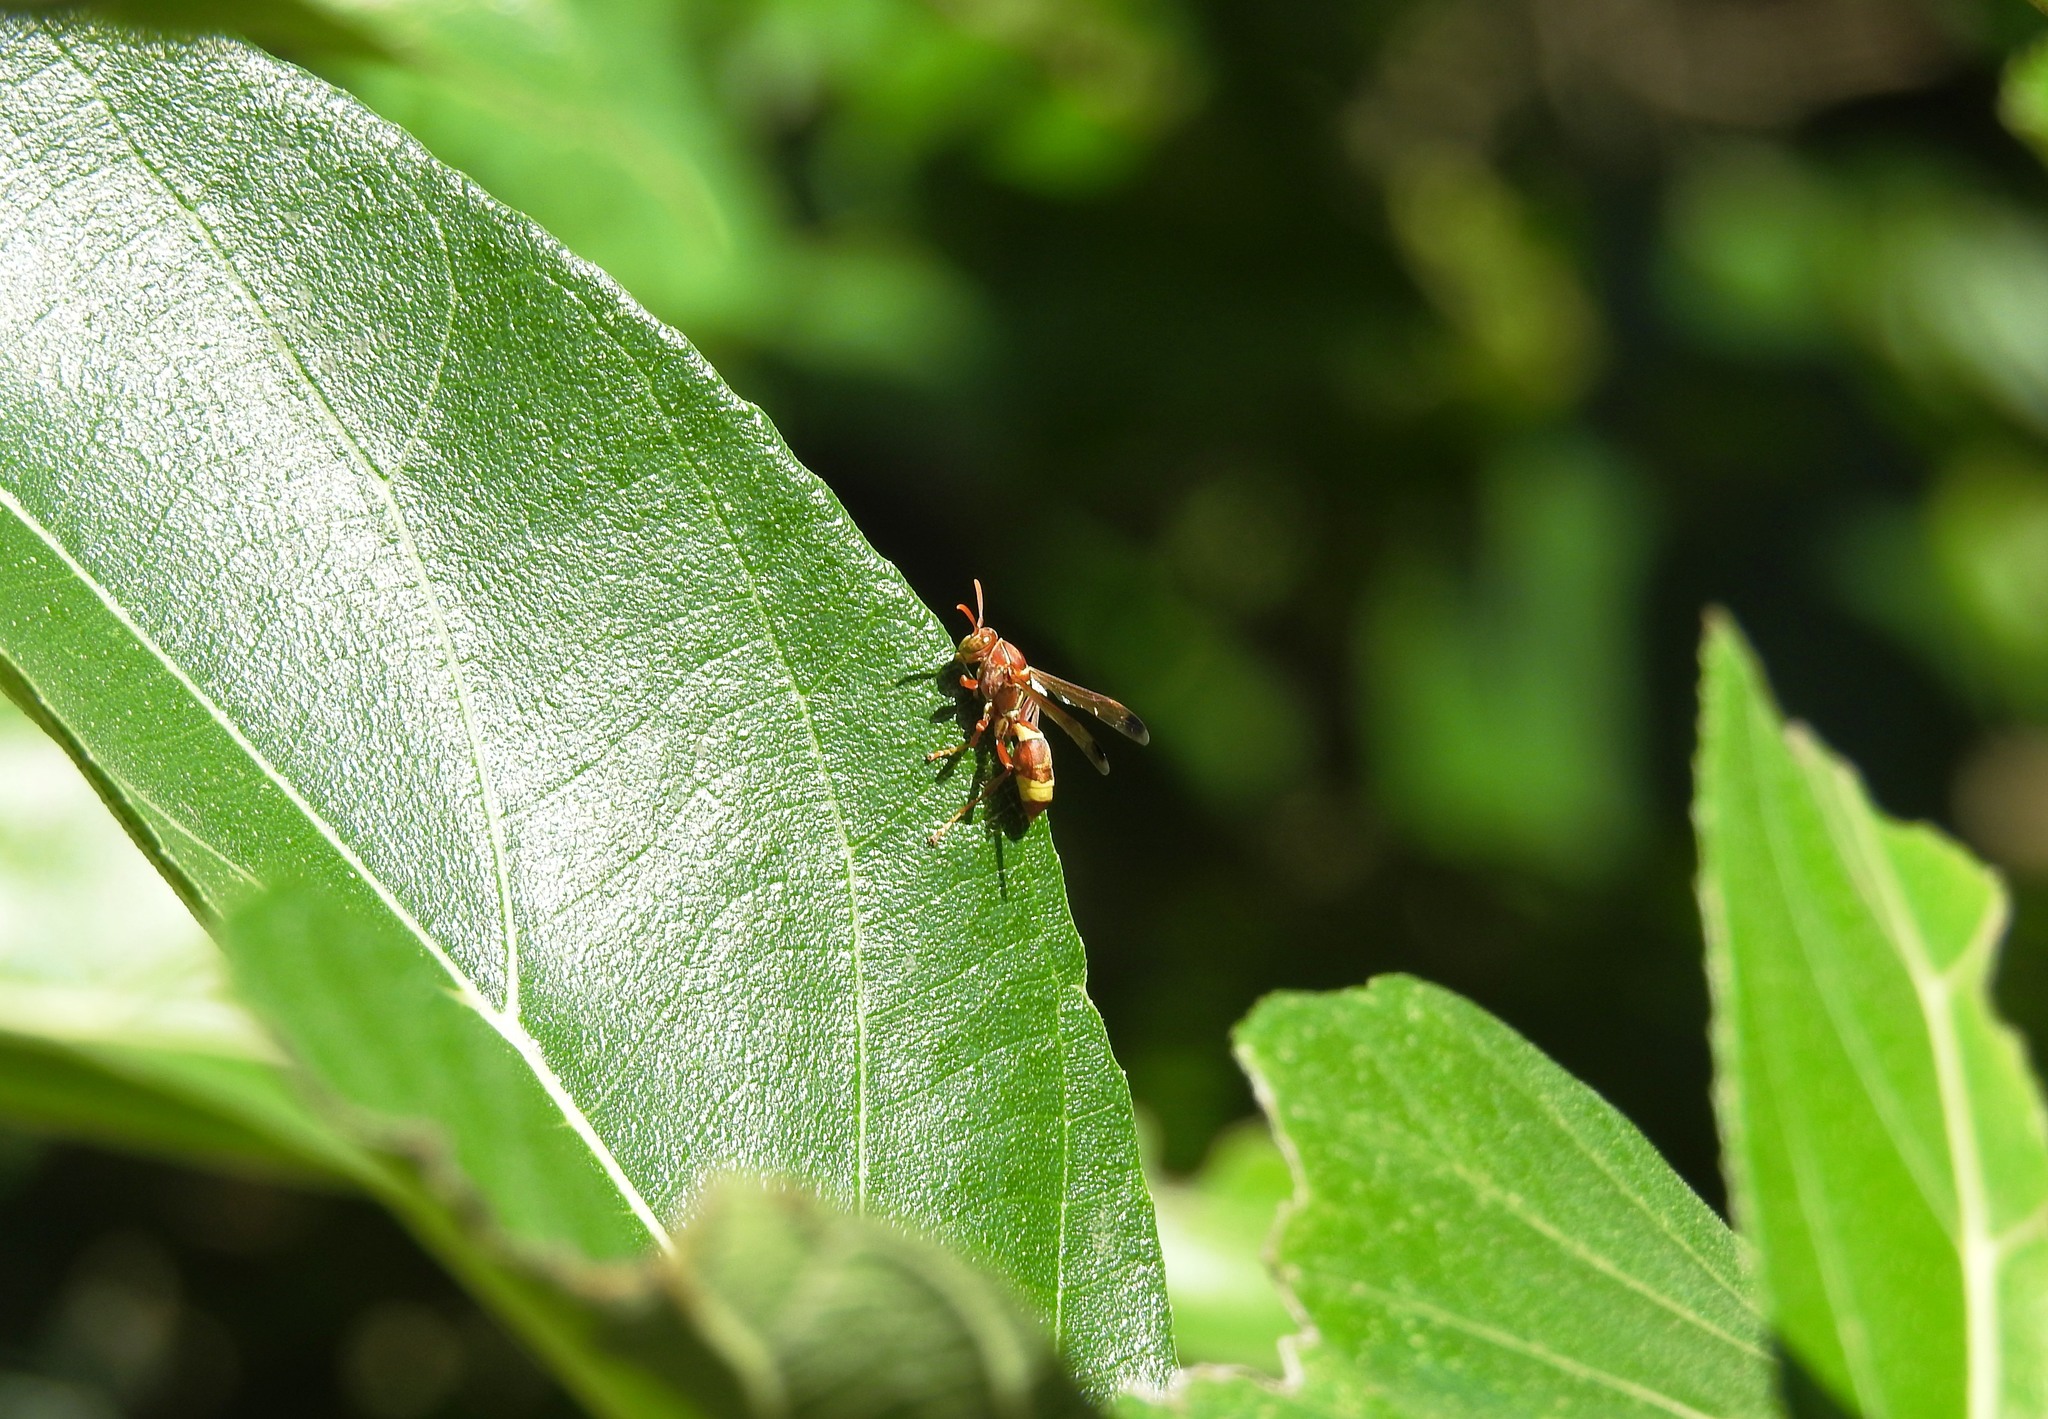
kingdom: Animalia
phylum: Arthropoda
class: Insecta
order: Hymenoptera
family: Eumenidae
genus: Polistes
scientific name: Polistes stigma
